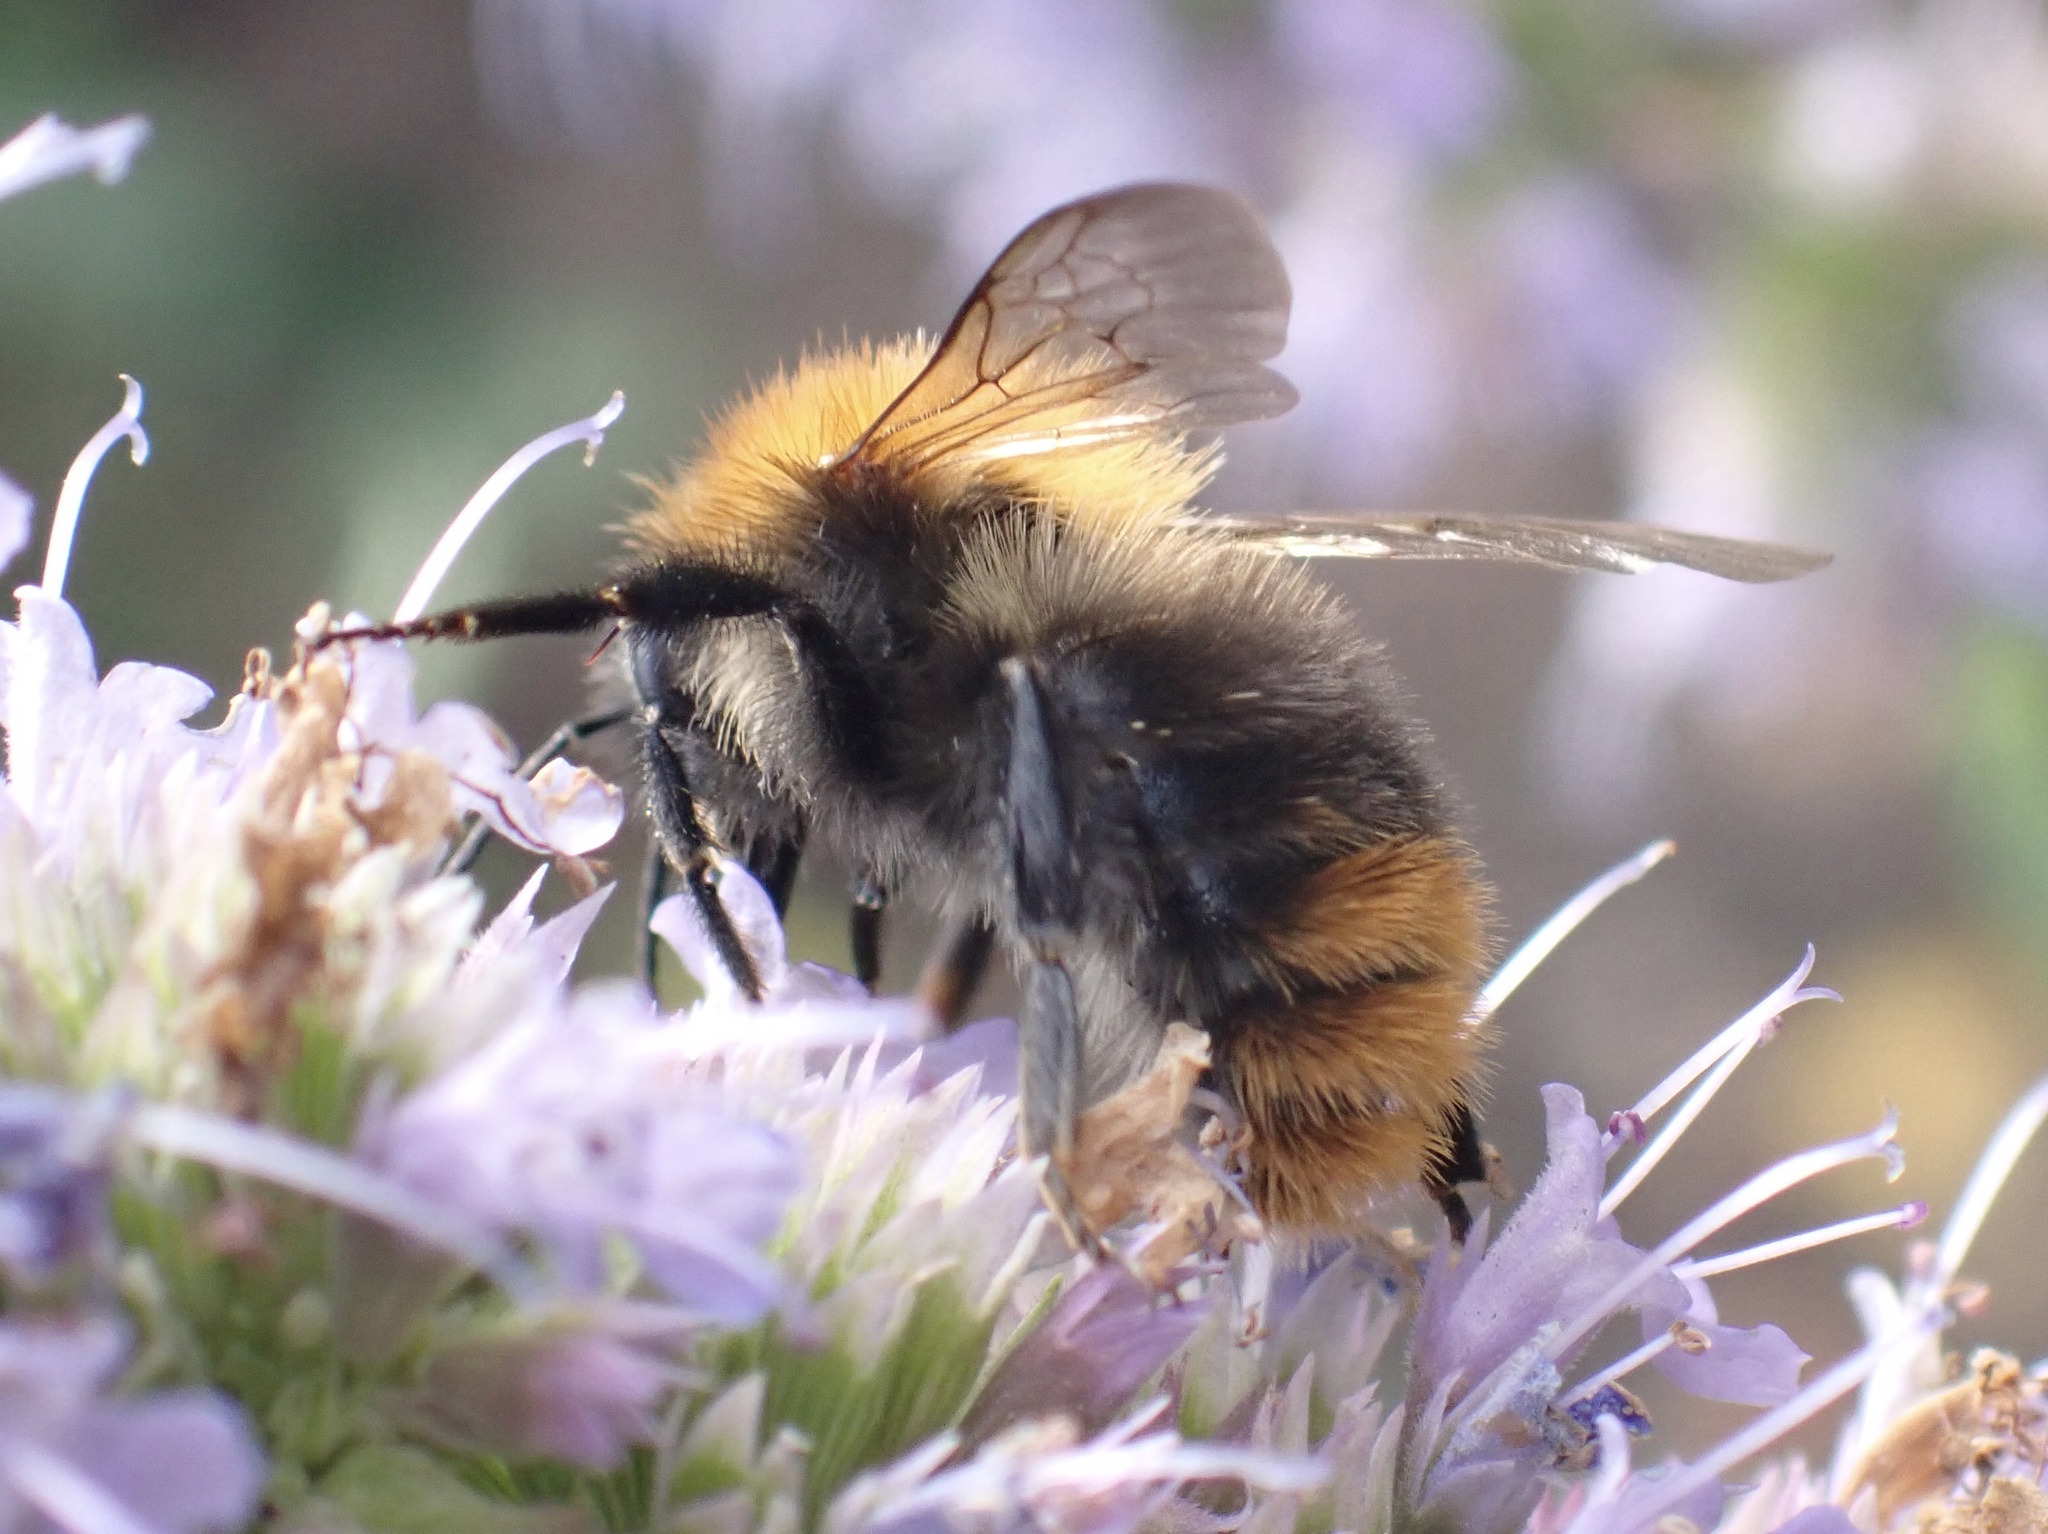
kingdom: Animalia
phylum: Arthropoda
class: Insecta
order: Hymenoptera
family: Apidae
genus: Bombus
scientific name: Bombus pascuorum
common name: Common carder bee
